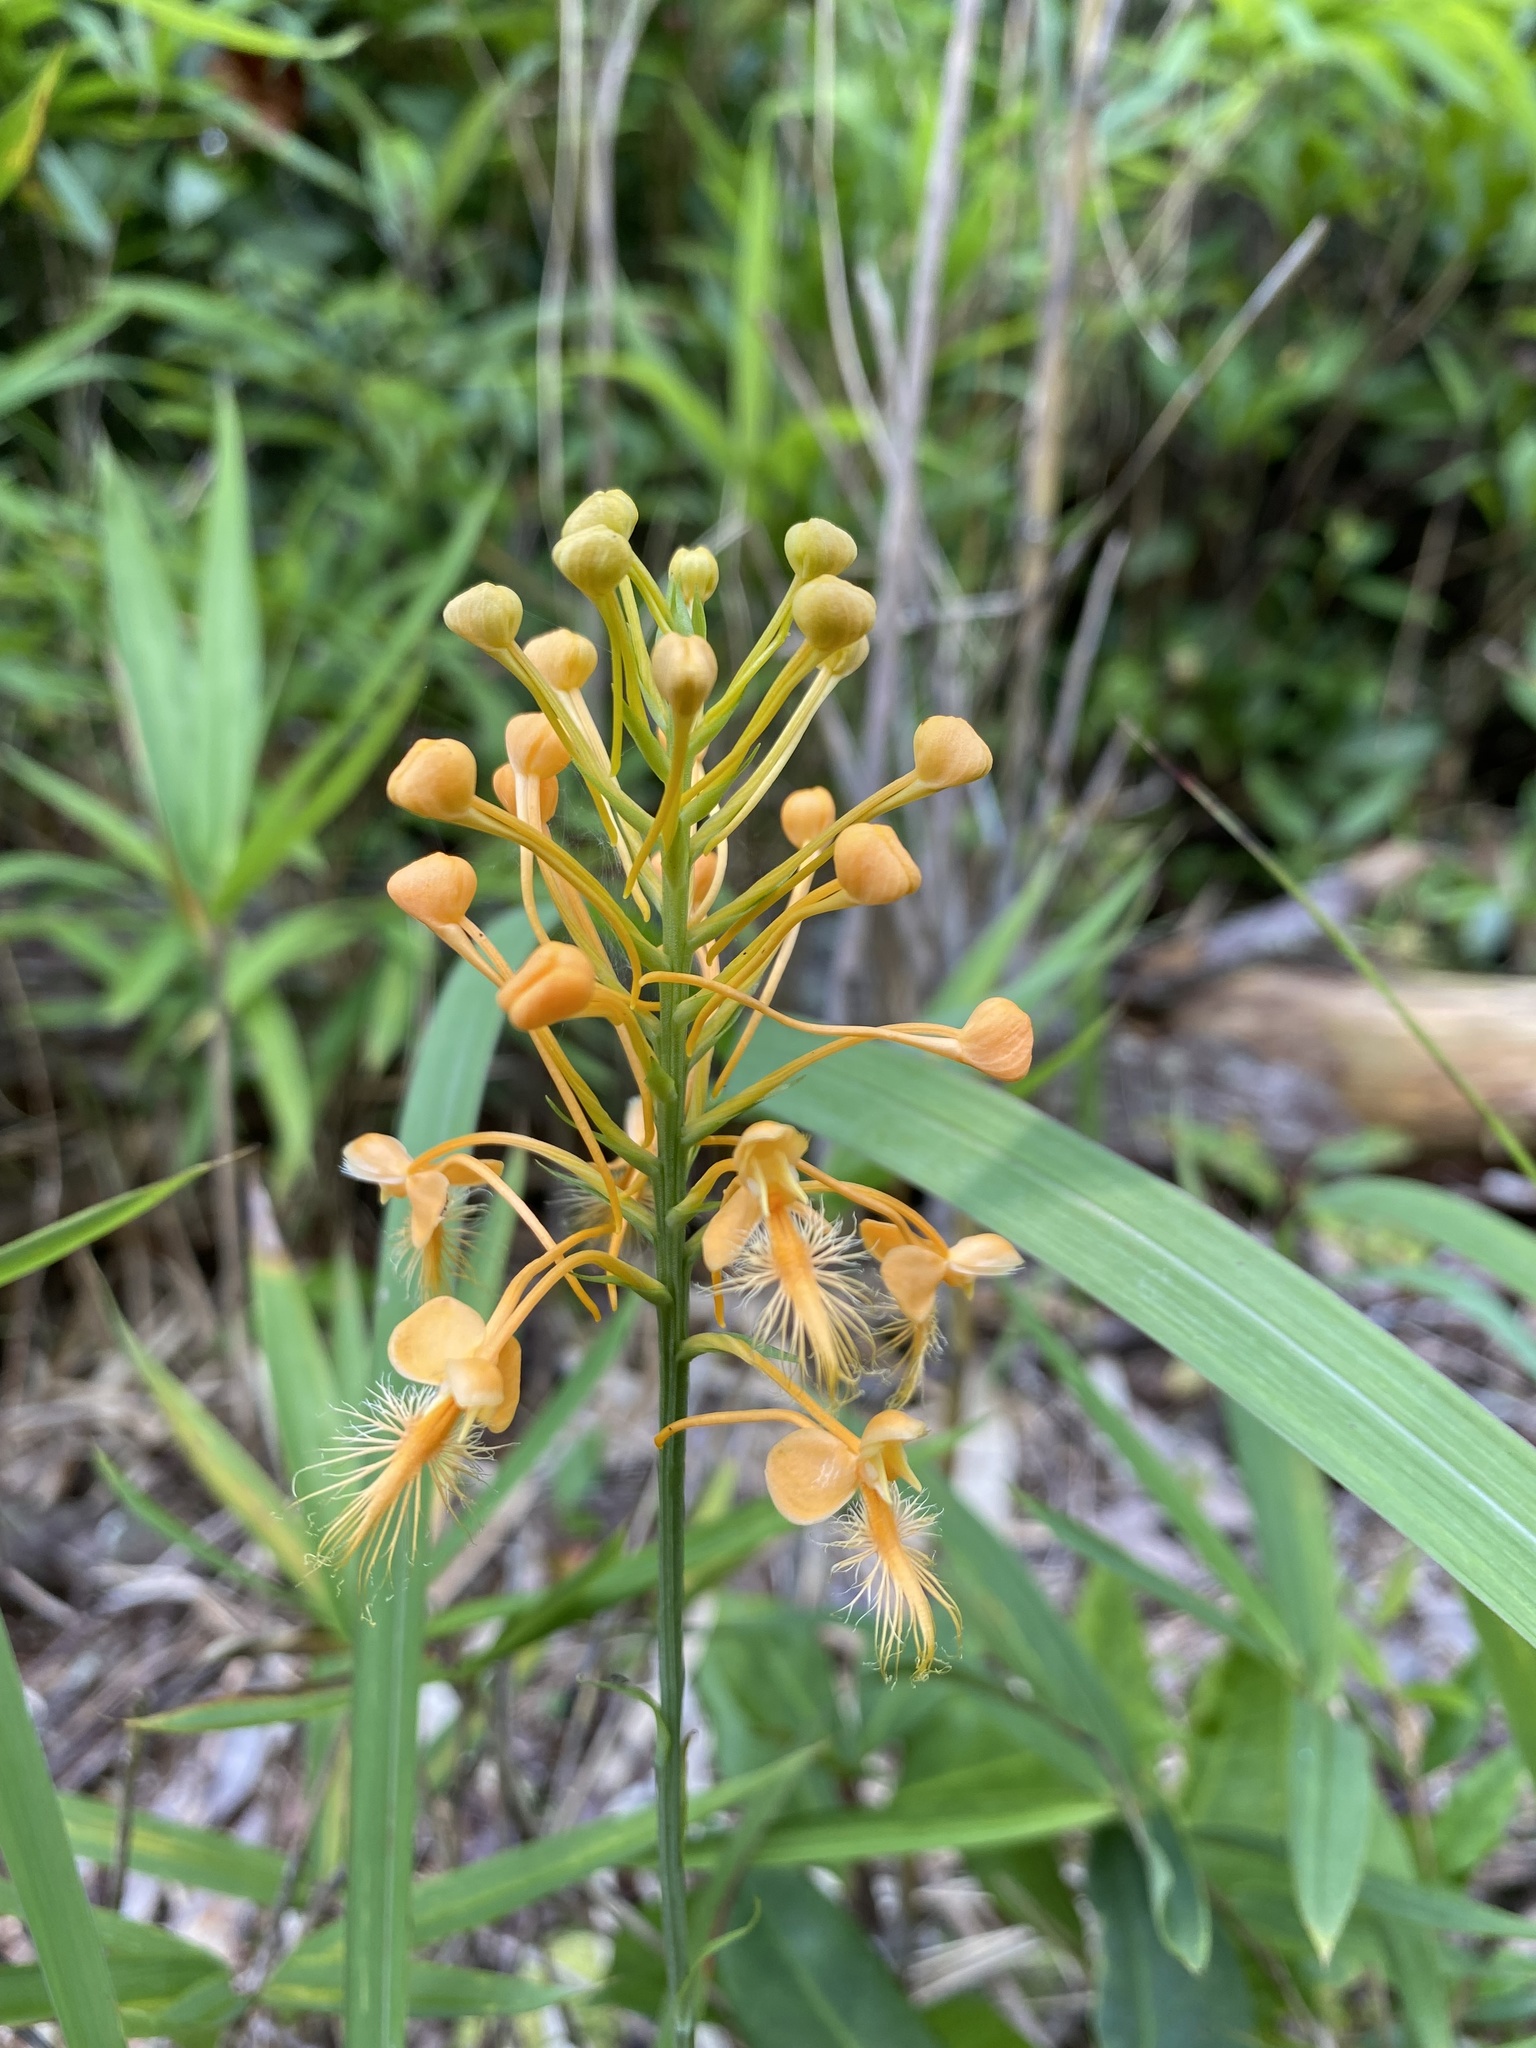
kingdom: Plantae
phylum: Tracheophyta
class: Liliopsida
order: Asparagales
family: Orchidaceae
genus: Platanthera
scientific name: Platanthera ciliaris
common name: Yellow fringed orchid
